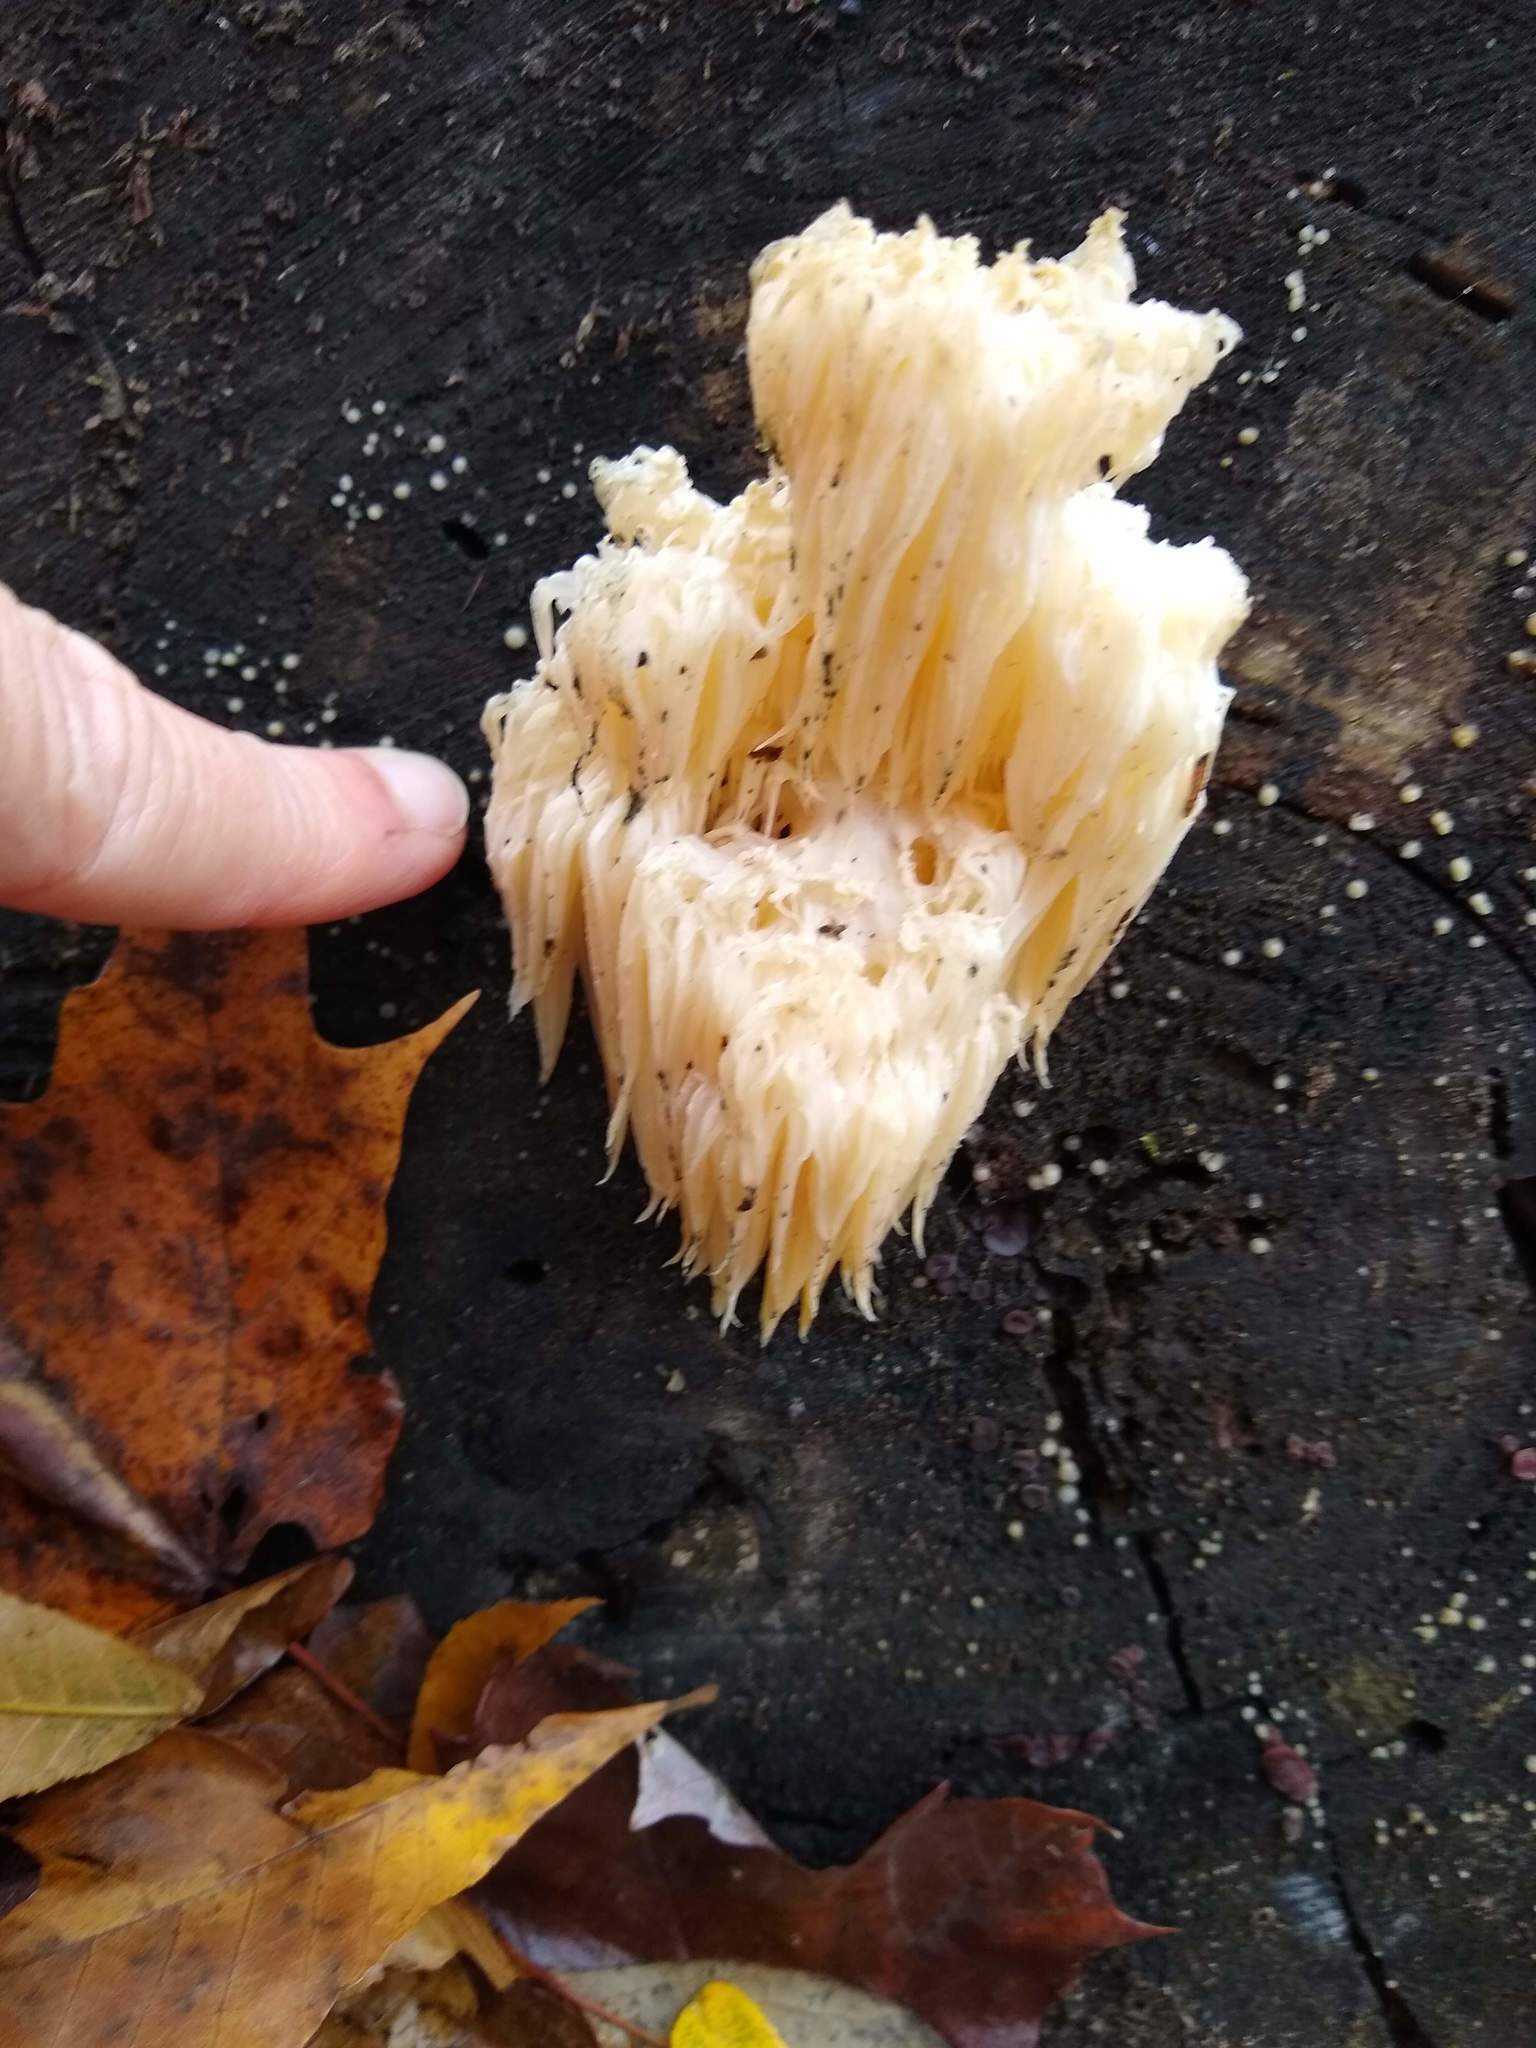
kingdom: Fungi
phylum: Basidiomycota
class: Agaricomycetes
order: Russulales
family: Hericiaceae
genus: Hericium
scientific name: Hericium americanum
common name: Bear's head tooth
